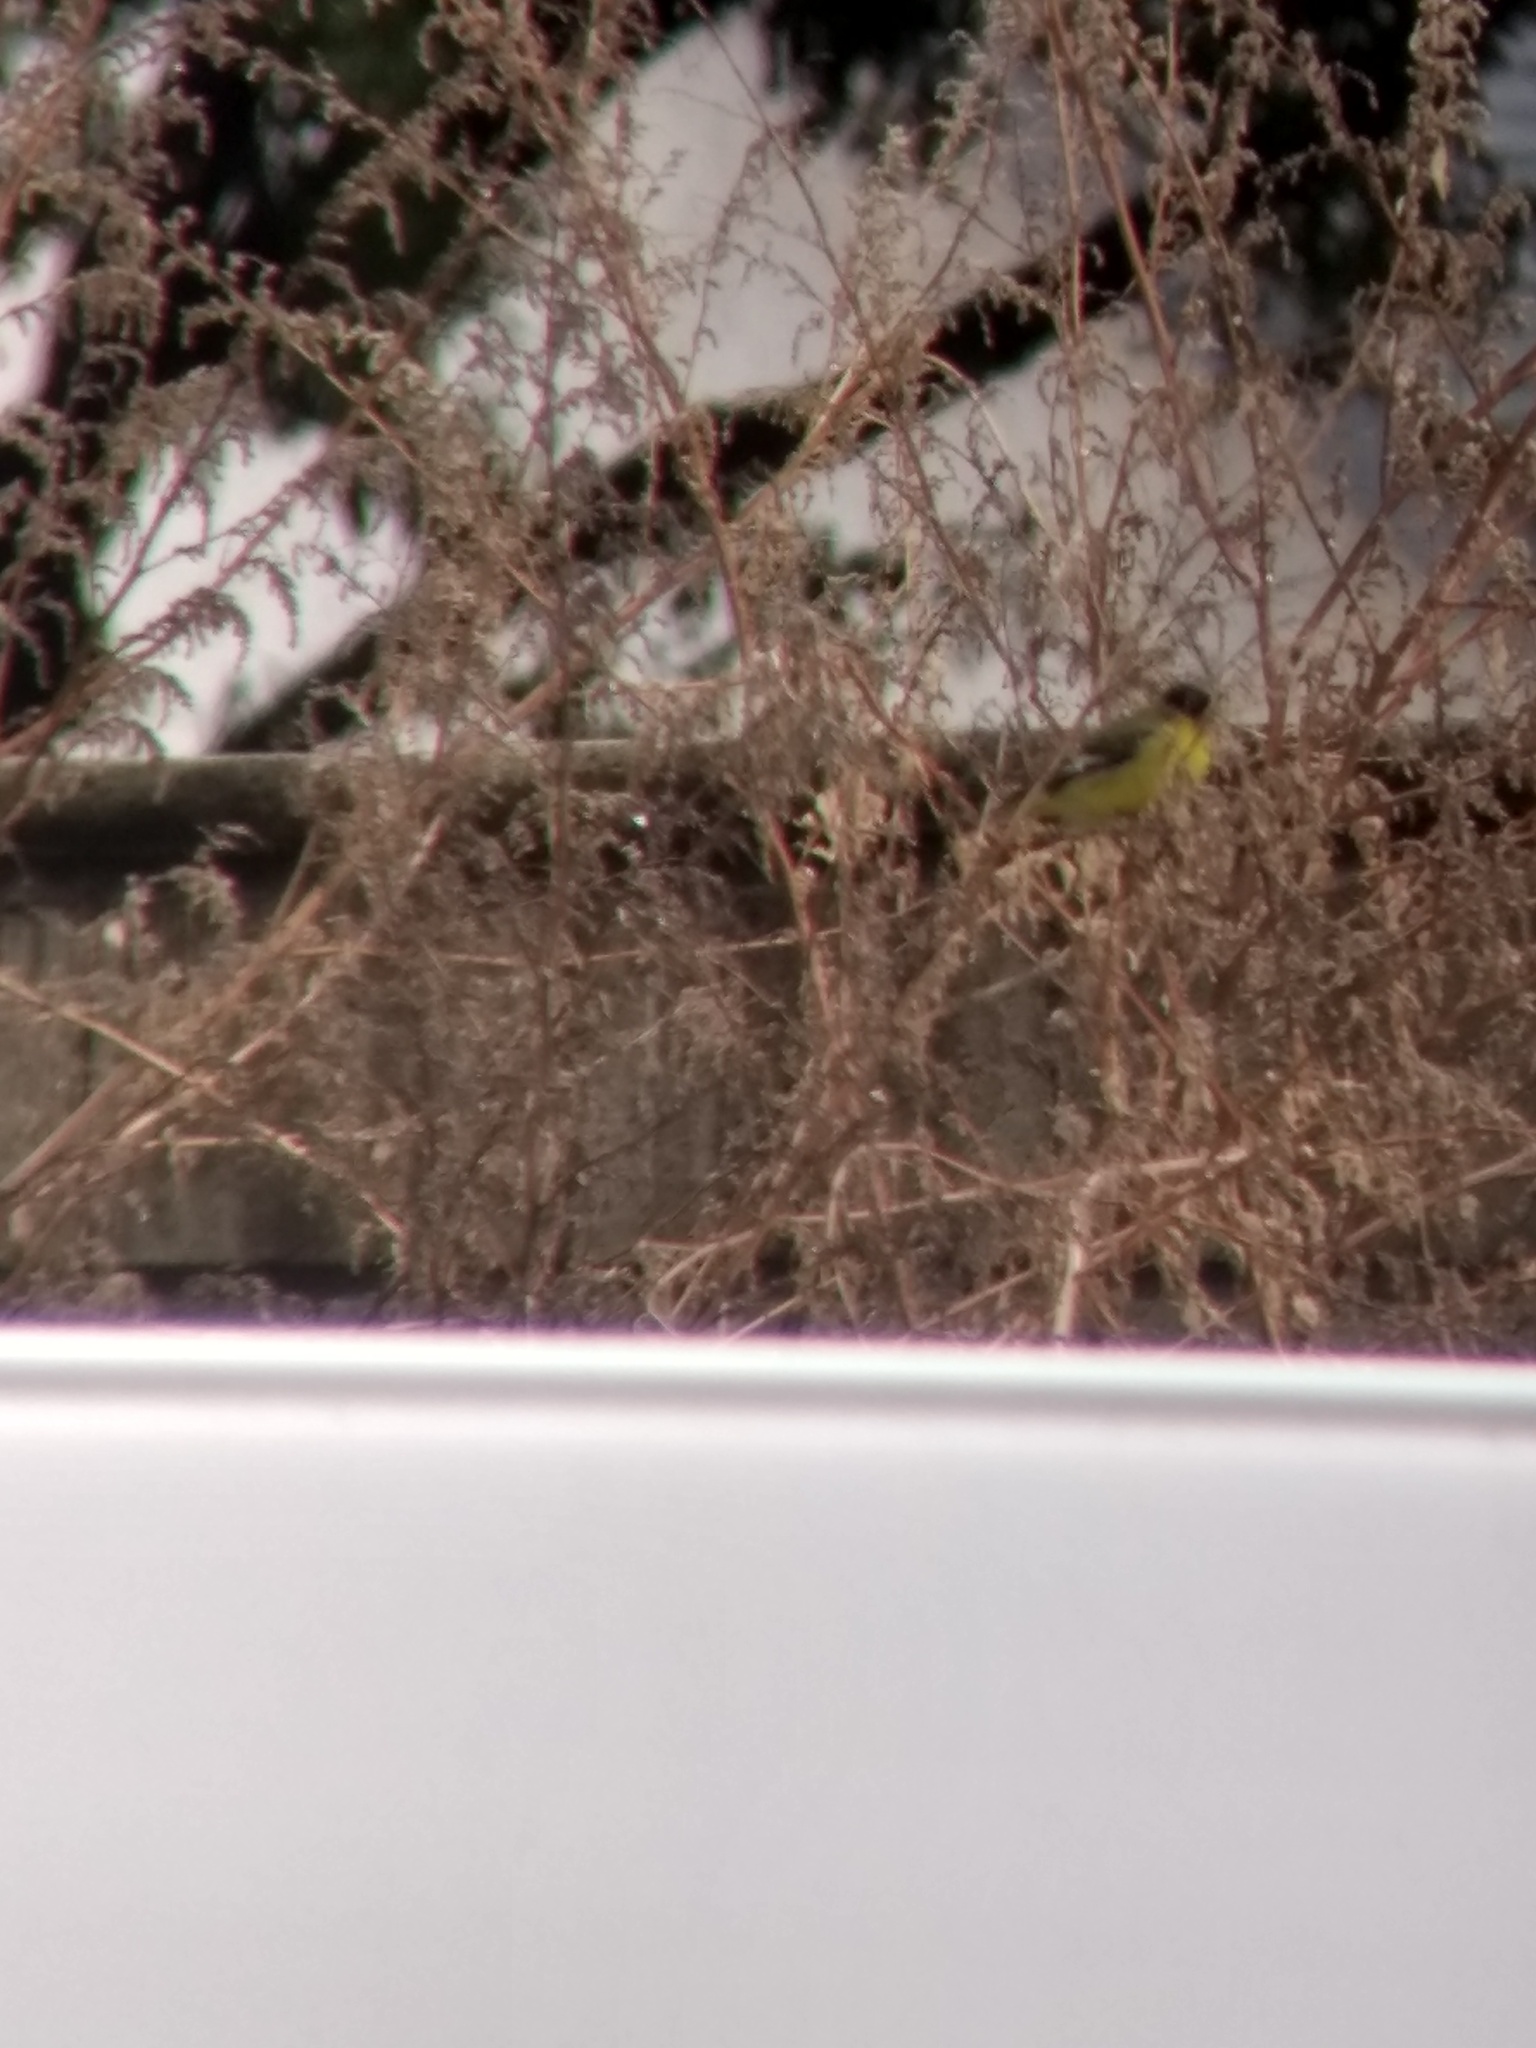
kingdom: Animalia
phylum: Chordata
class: Aves
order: Passeriformes
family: Fringillidae
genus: Spinus
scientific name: Spinus psaltria
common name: Lesser goldfinch
